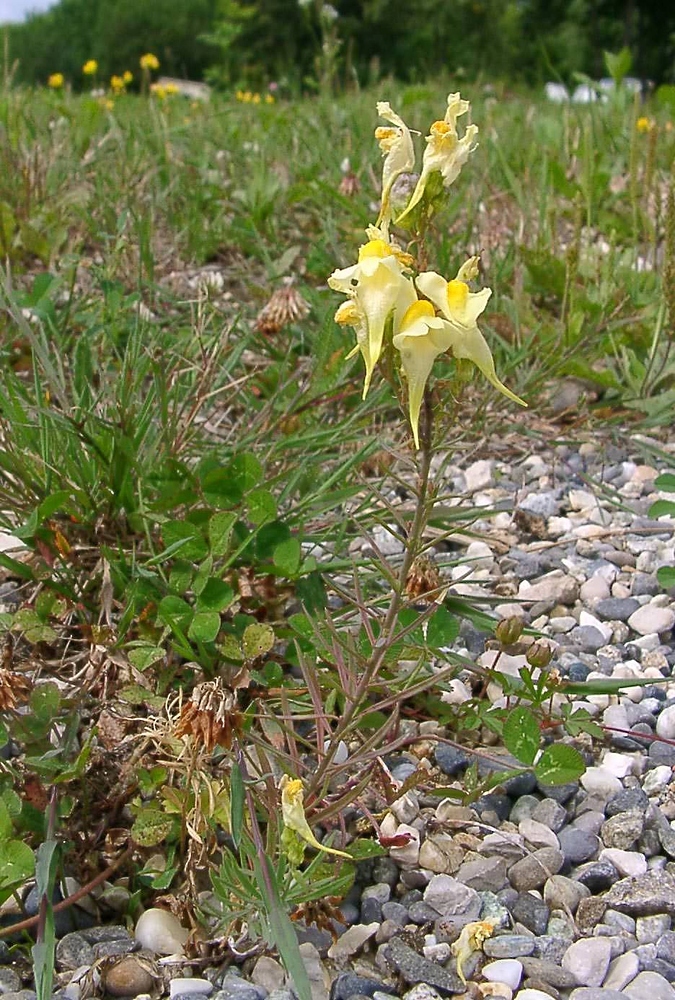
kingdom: Plantae
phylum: Tracheophyta
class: Magnoliopsida
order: Lamiales
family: Plantaginaceae
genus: Linaria
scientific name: Linaria vulgaris
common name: Butter and eggs
